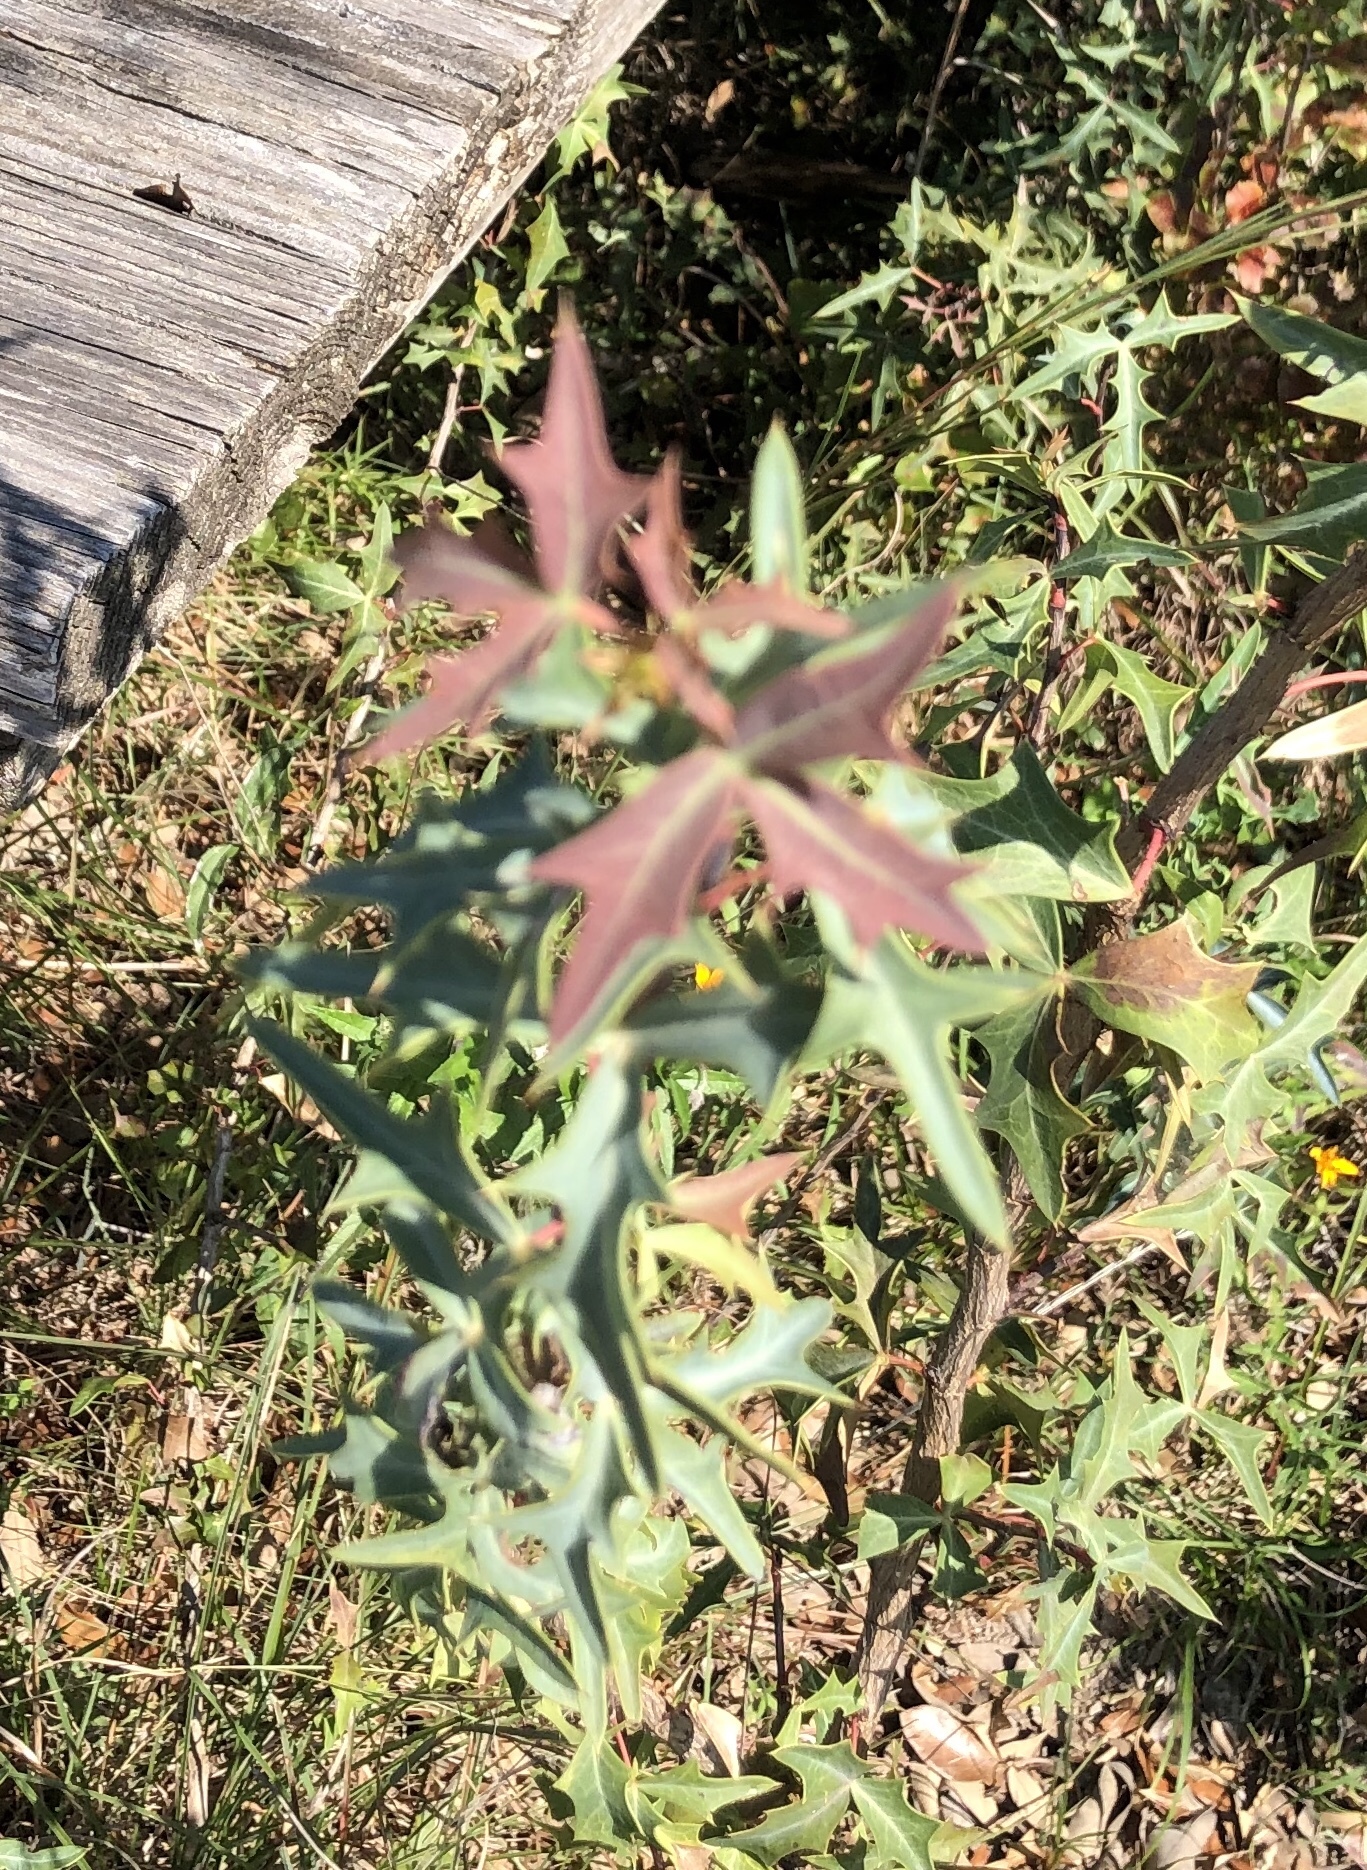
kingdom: Plantae
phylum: Tracheophyta
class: Magnoliopsida
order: Ranunculales
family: Berberidaceae
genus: Alloberberis
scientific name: Alloberberis trifoliolata
